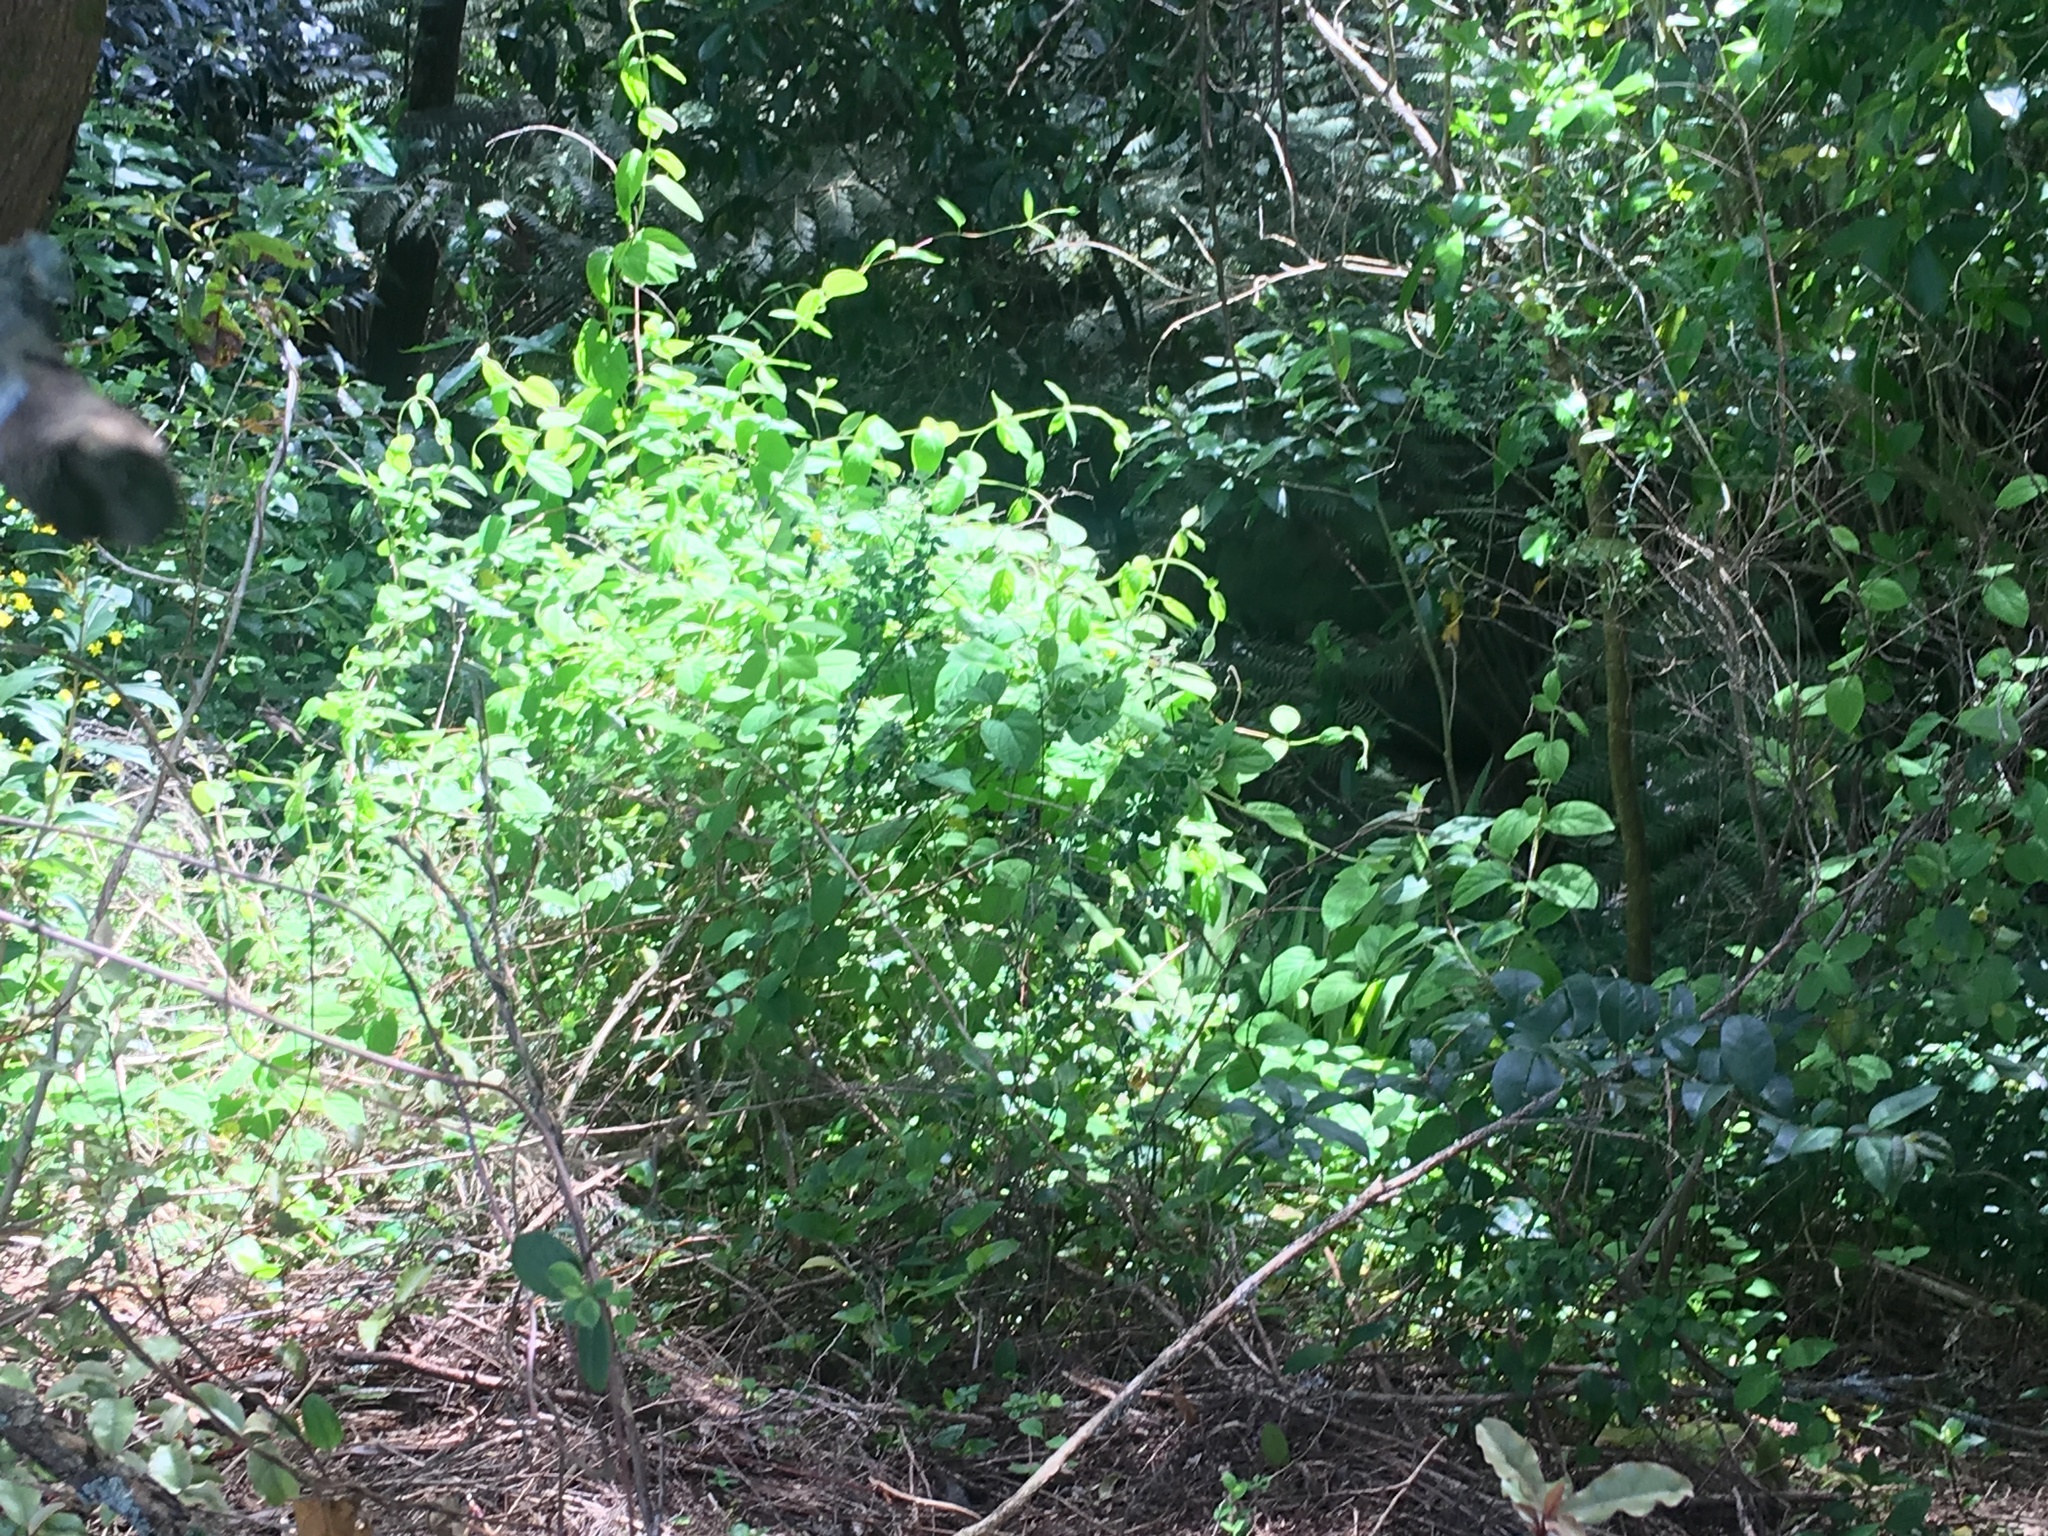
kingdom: Plantae
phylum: Tracheophyta
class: Magnoliopsida
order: Dipsacales
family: Caprifoliaceae
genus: Lonicera
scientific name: Lonicera japonica
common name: Japanese honeysuckle
